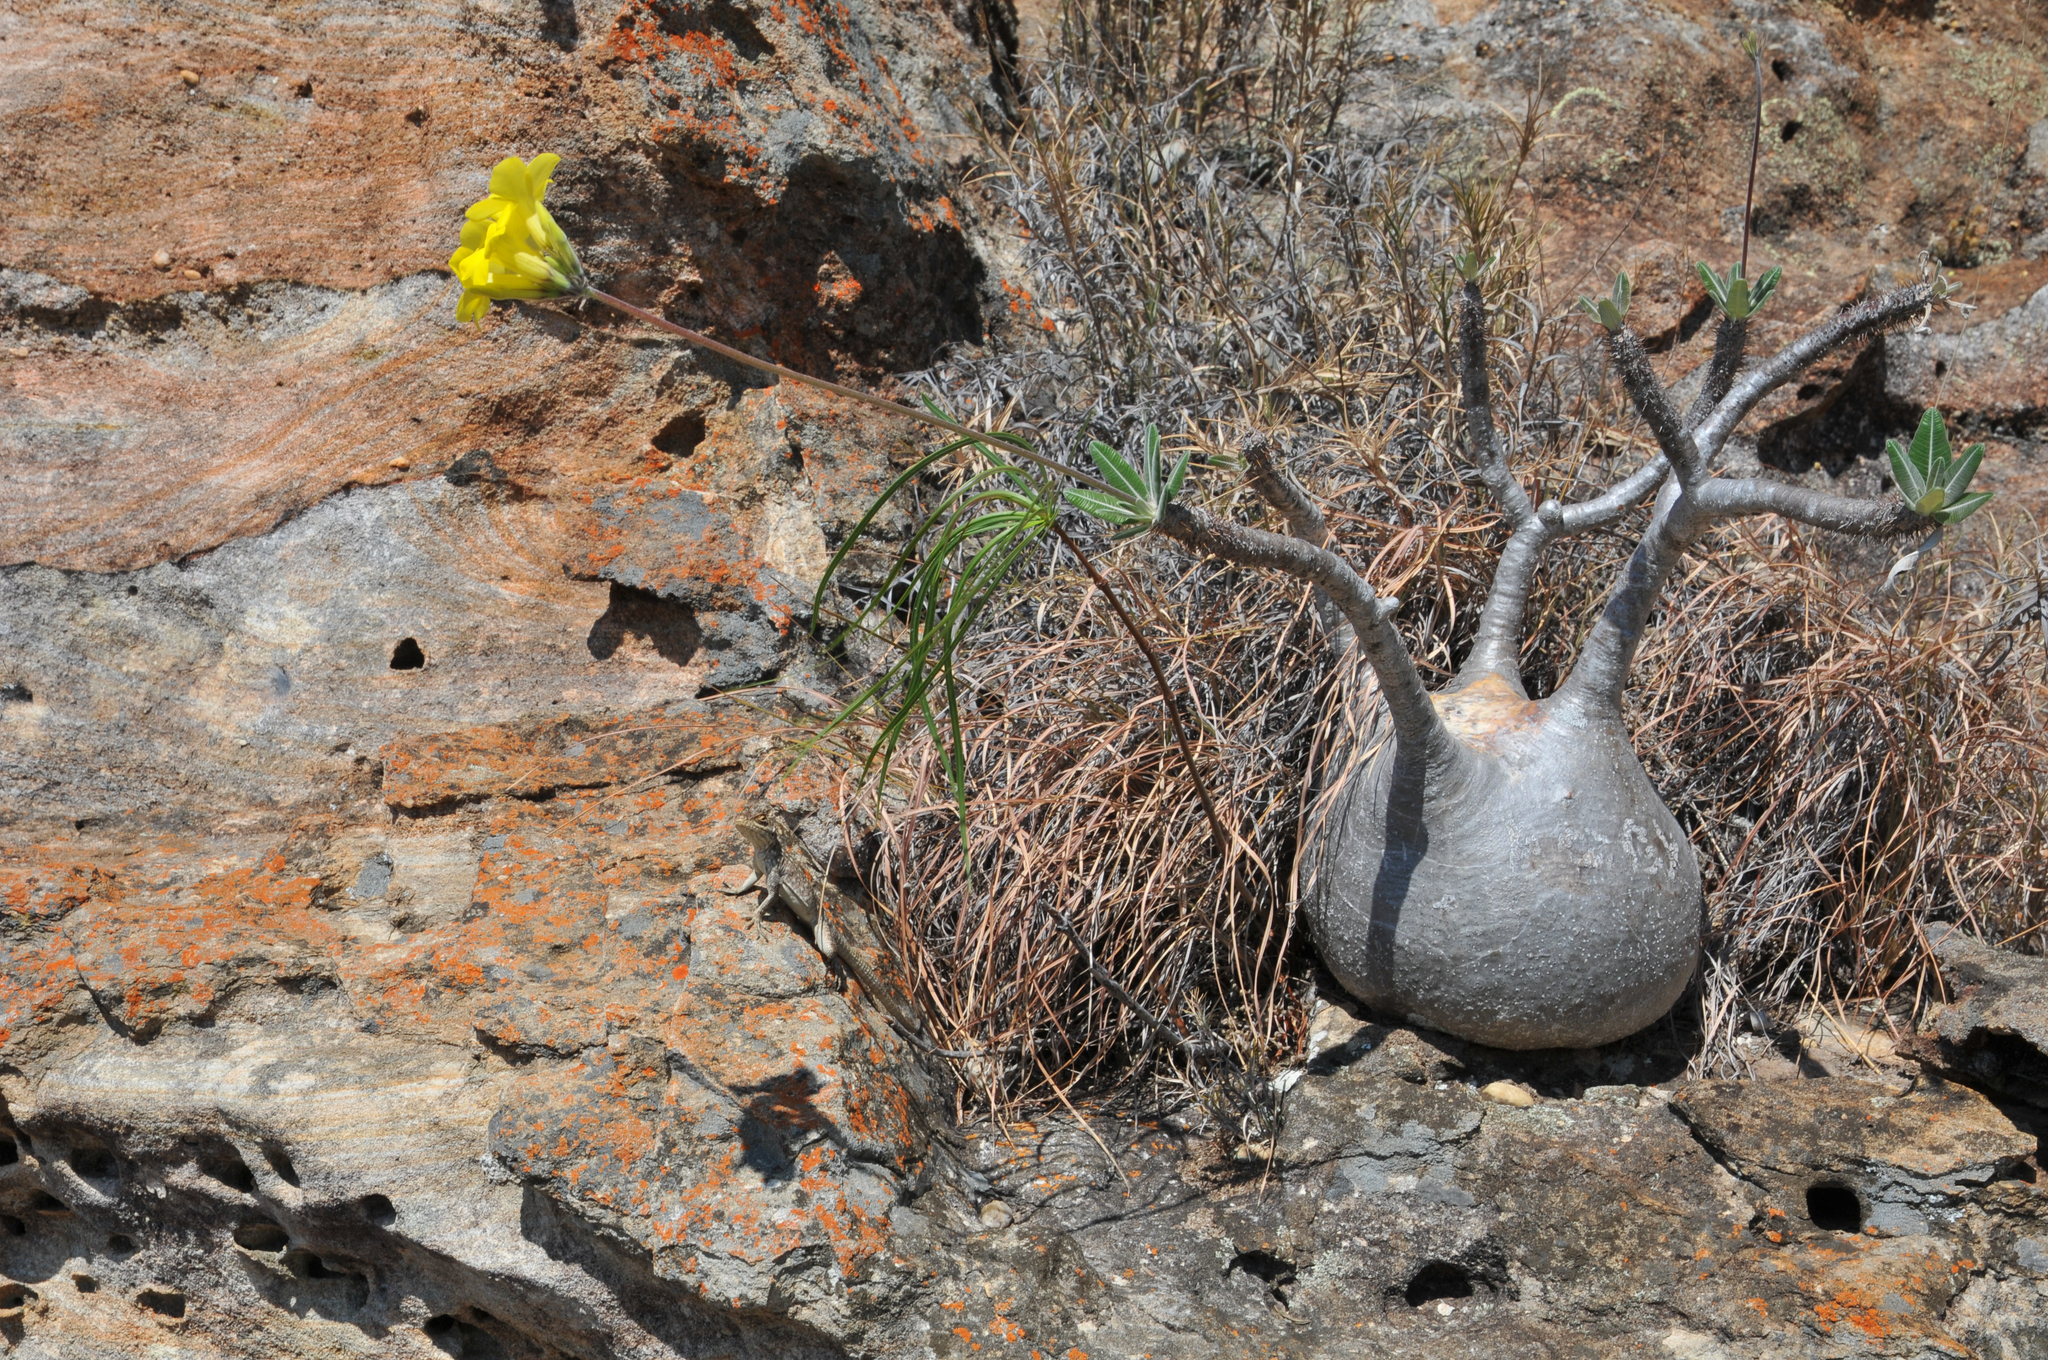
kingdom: Plantae
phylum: Tracheophyta
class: Magnoliopsida
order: Gentianales
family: Apocynaceae
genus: Pachypodium
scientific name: Pachypodium gracilius
